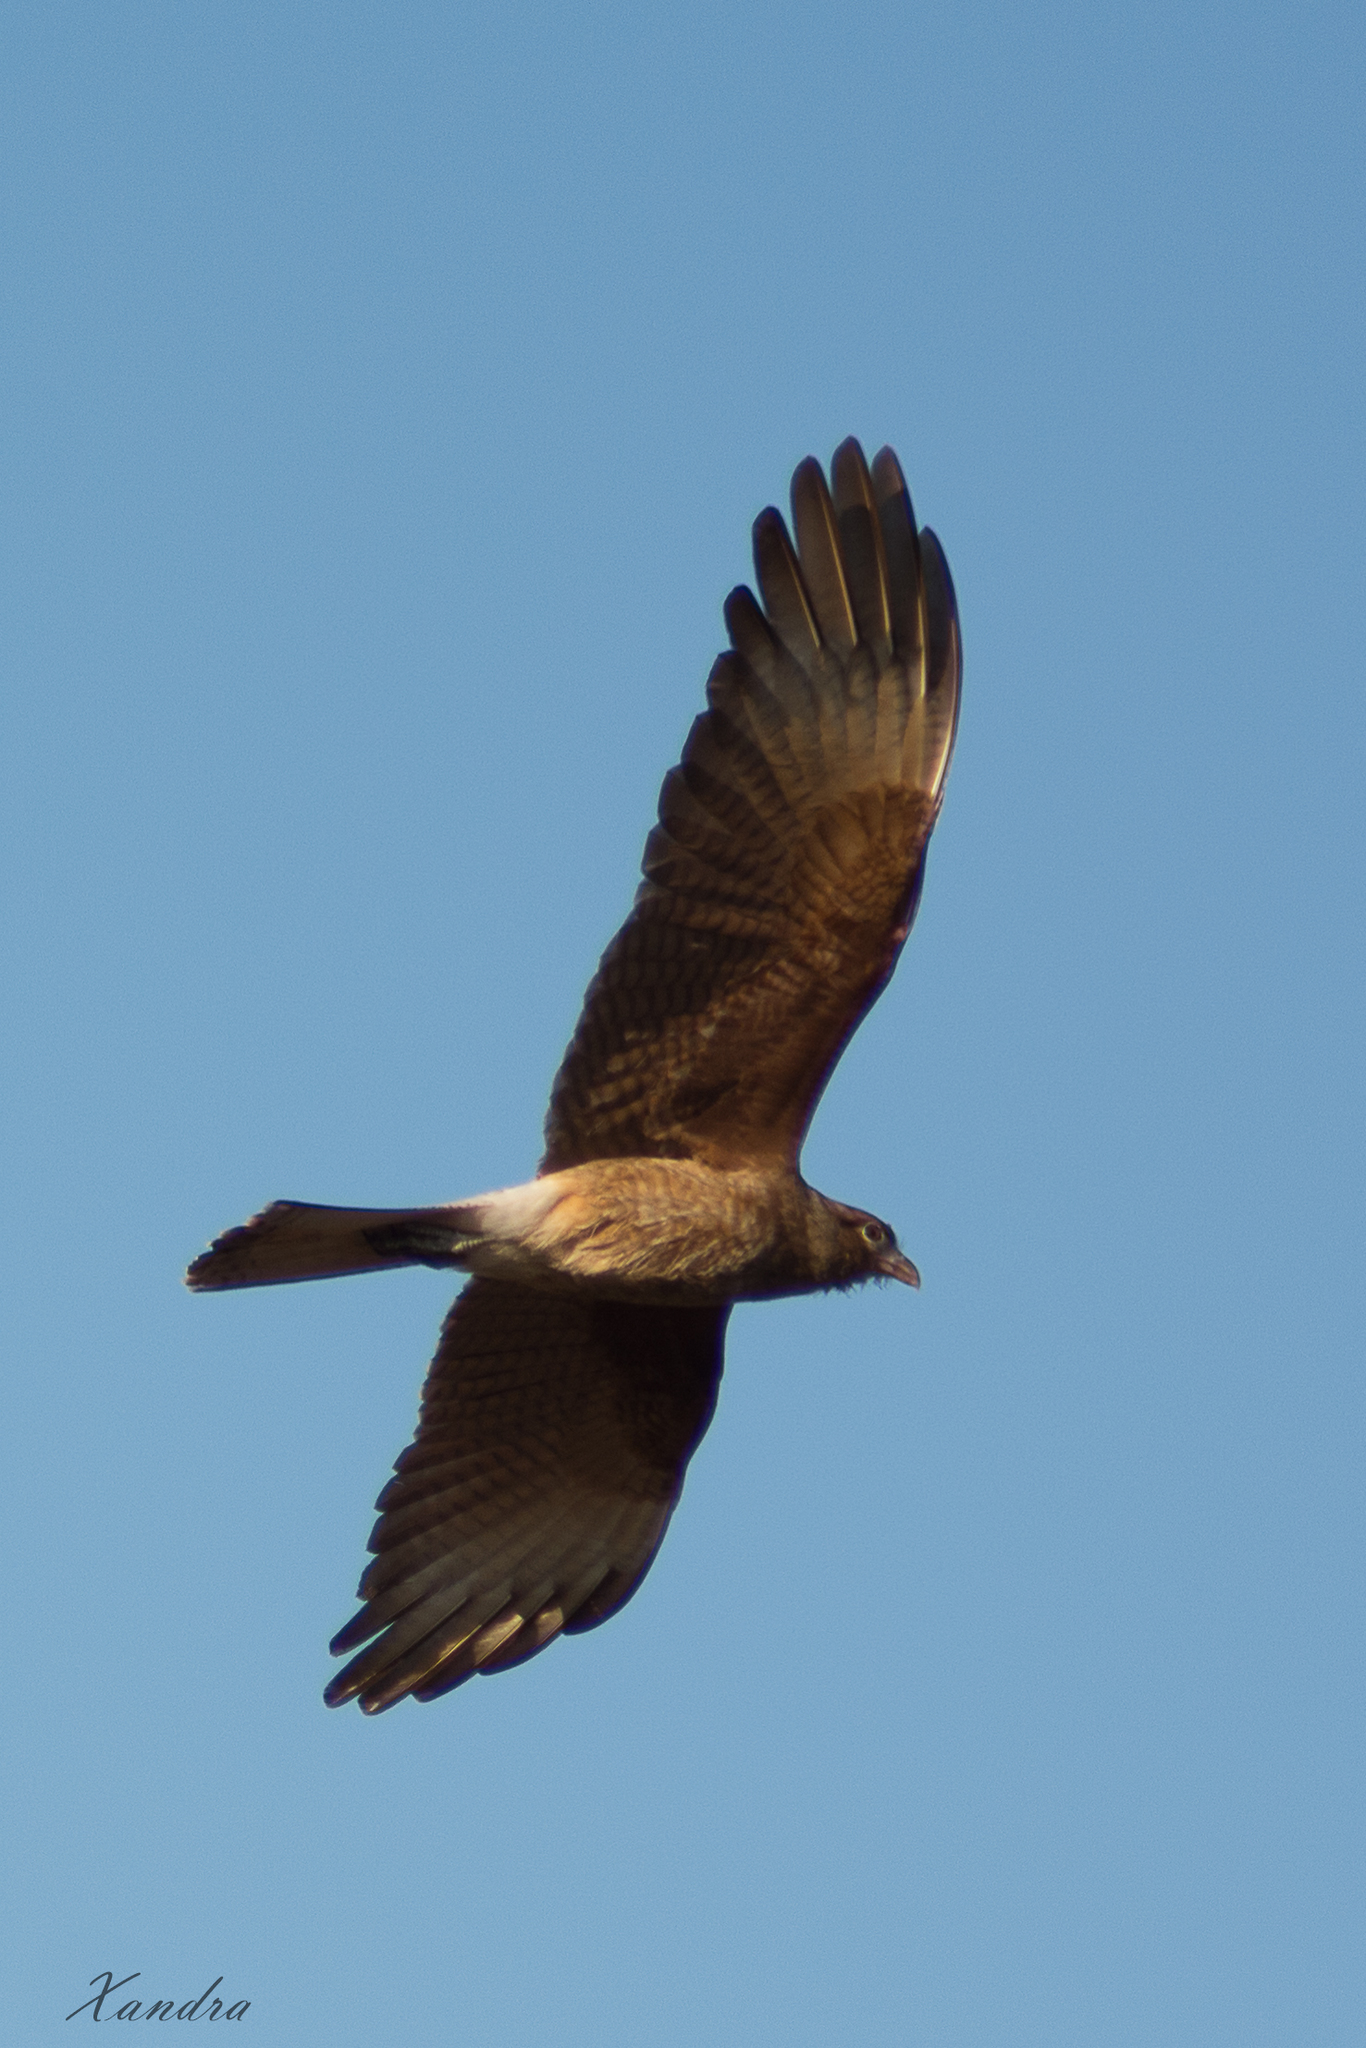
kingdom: Animalia
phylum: Chordata
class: Aves
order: Falconiformes
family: Falconidae
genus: Daptrius
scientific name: Daptrius
